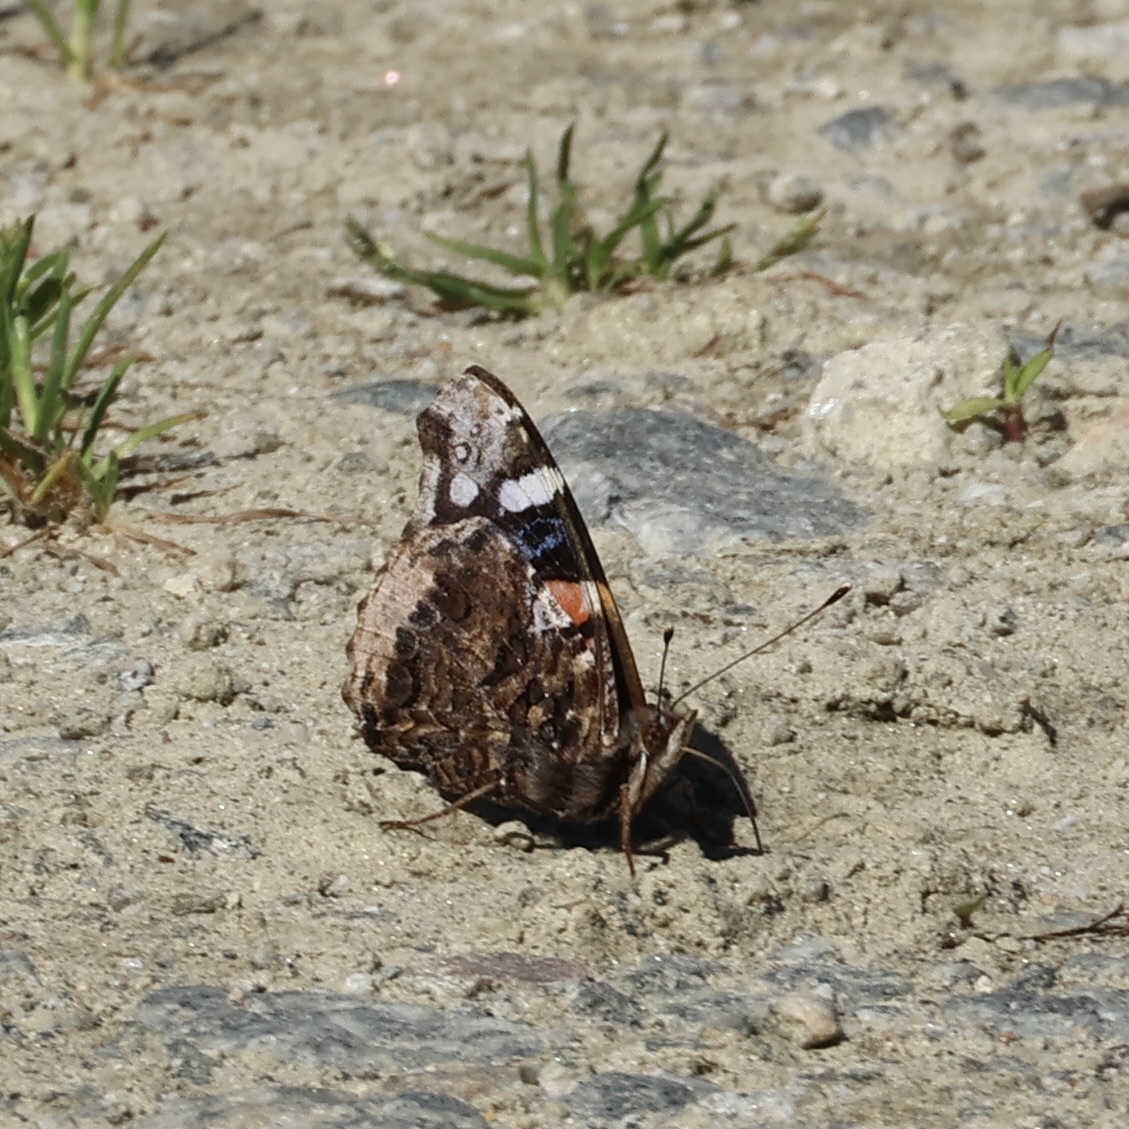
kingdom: Animalia
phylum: Arthropoda
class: Insecta
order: Lepidoptera
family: Nymphalidae
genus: Vanessa
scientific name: Vanessa atalanta
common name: Red admiral
